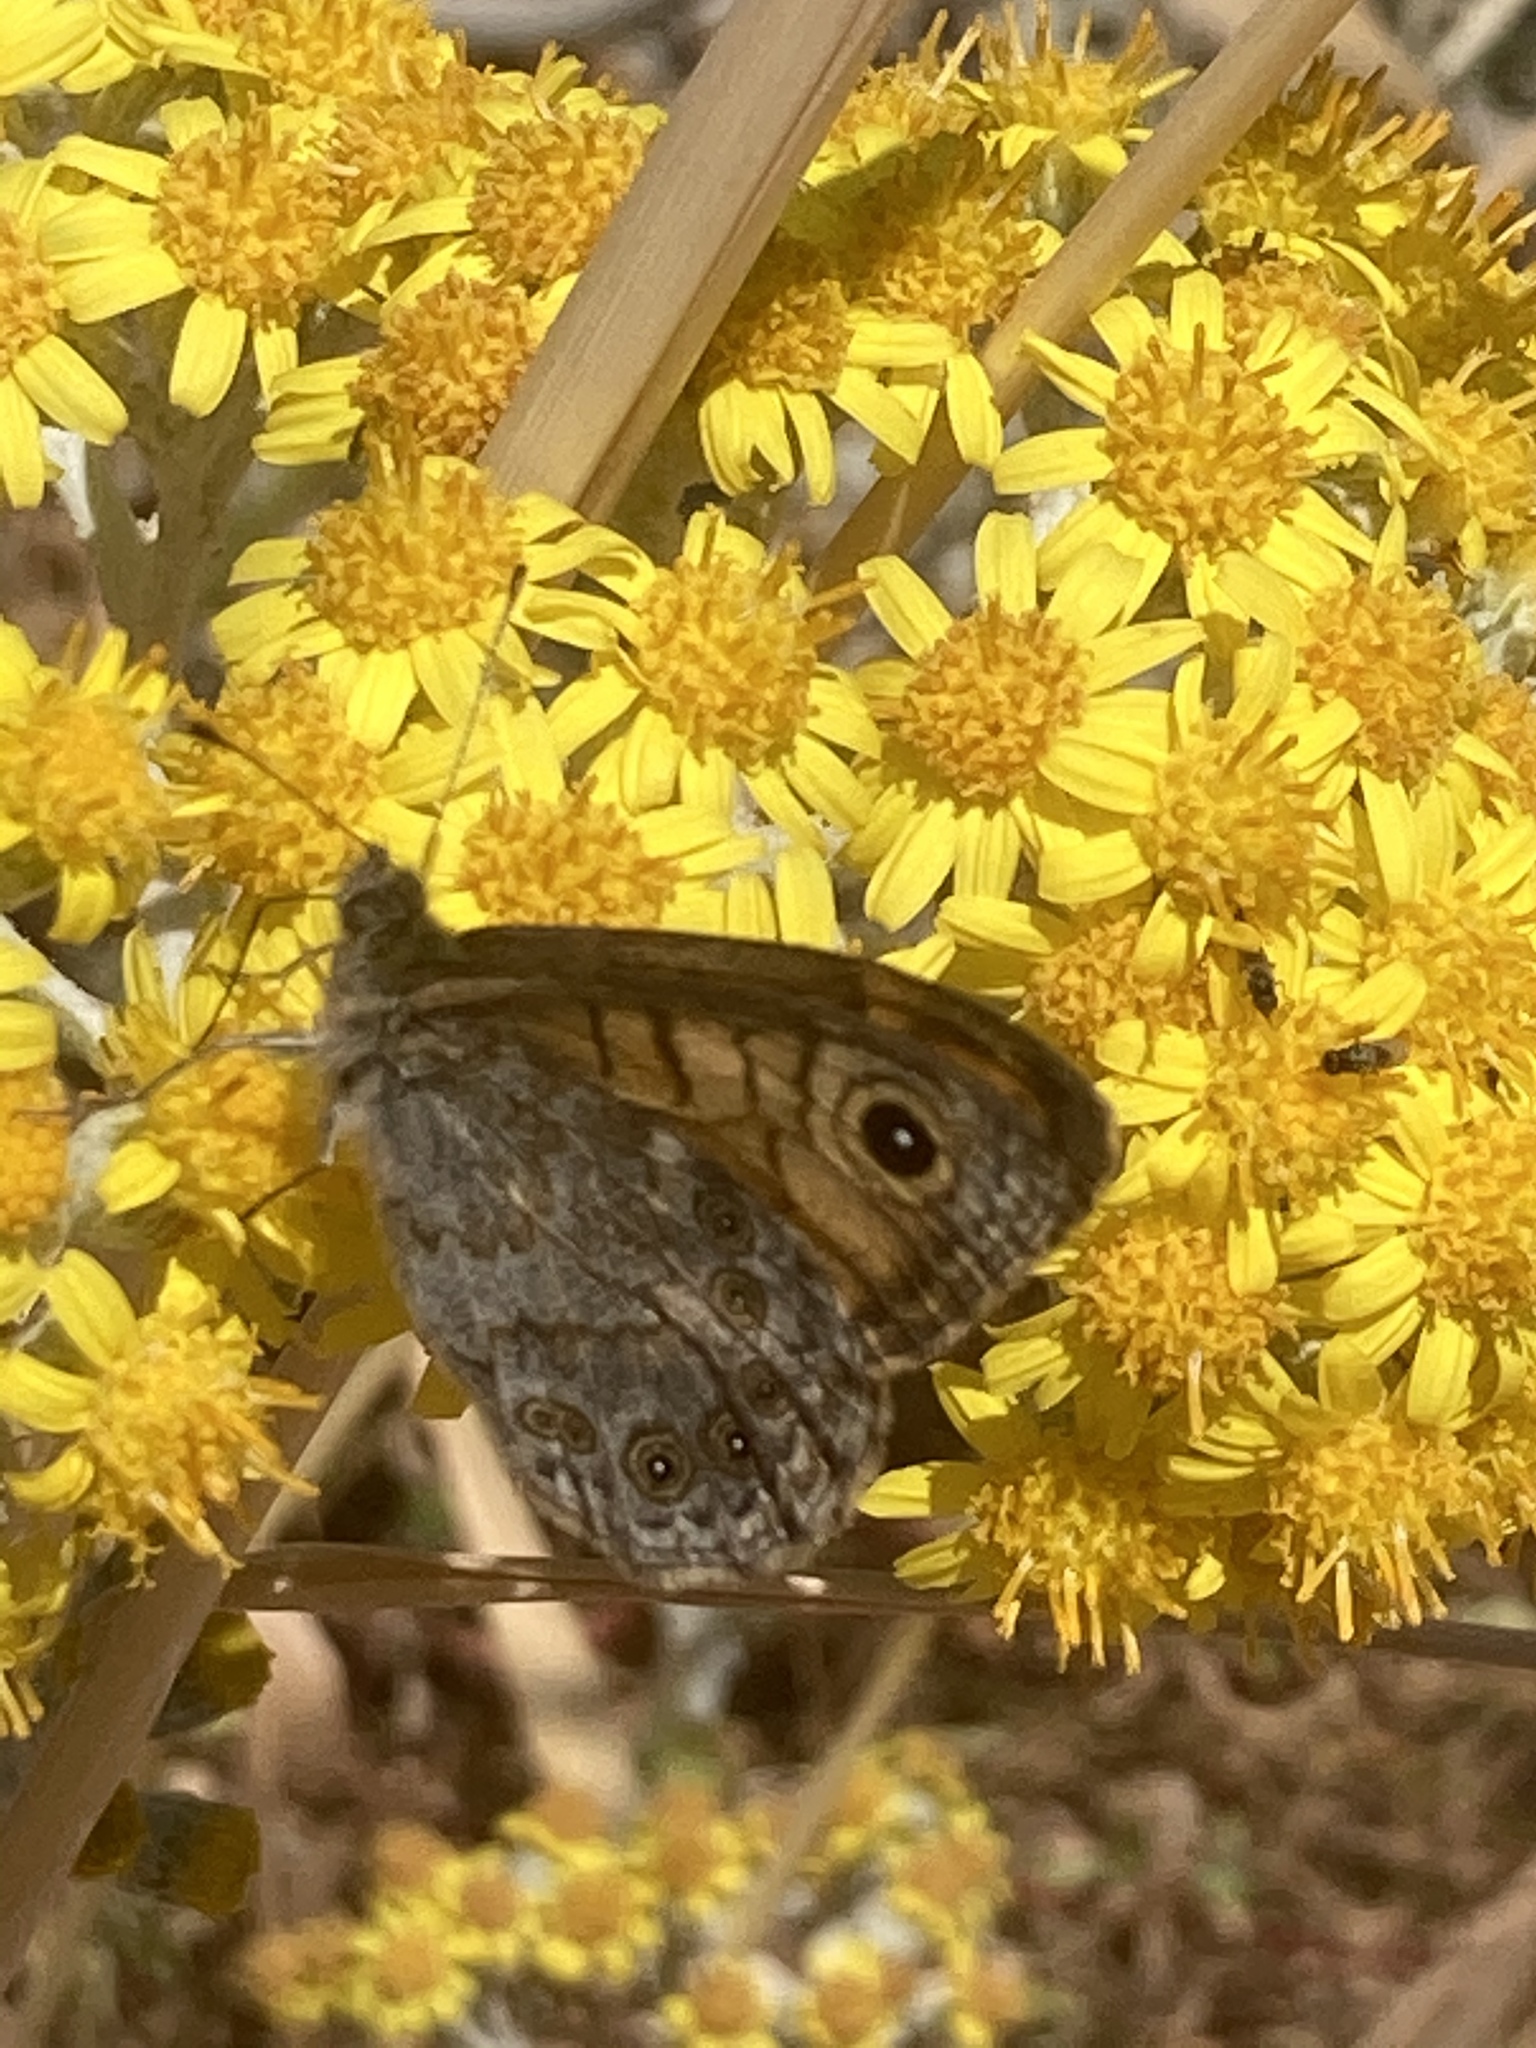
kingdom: Animalia
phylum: Arthropoda
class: Insecta
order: Lepidoptera
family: Nymphalidae
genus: Pararge
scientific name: Pararge Lasiommata megera
